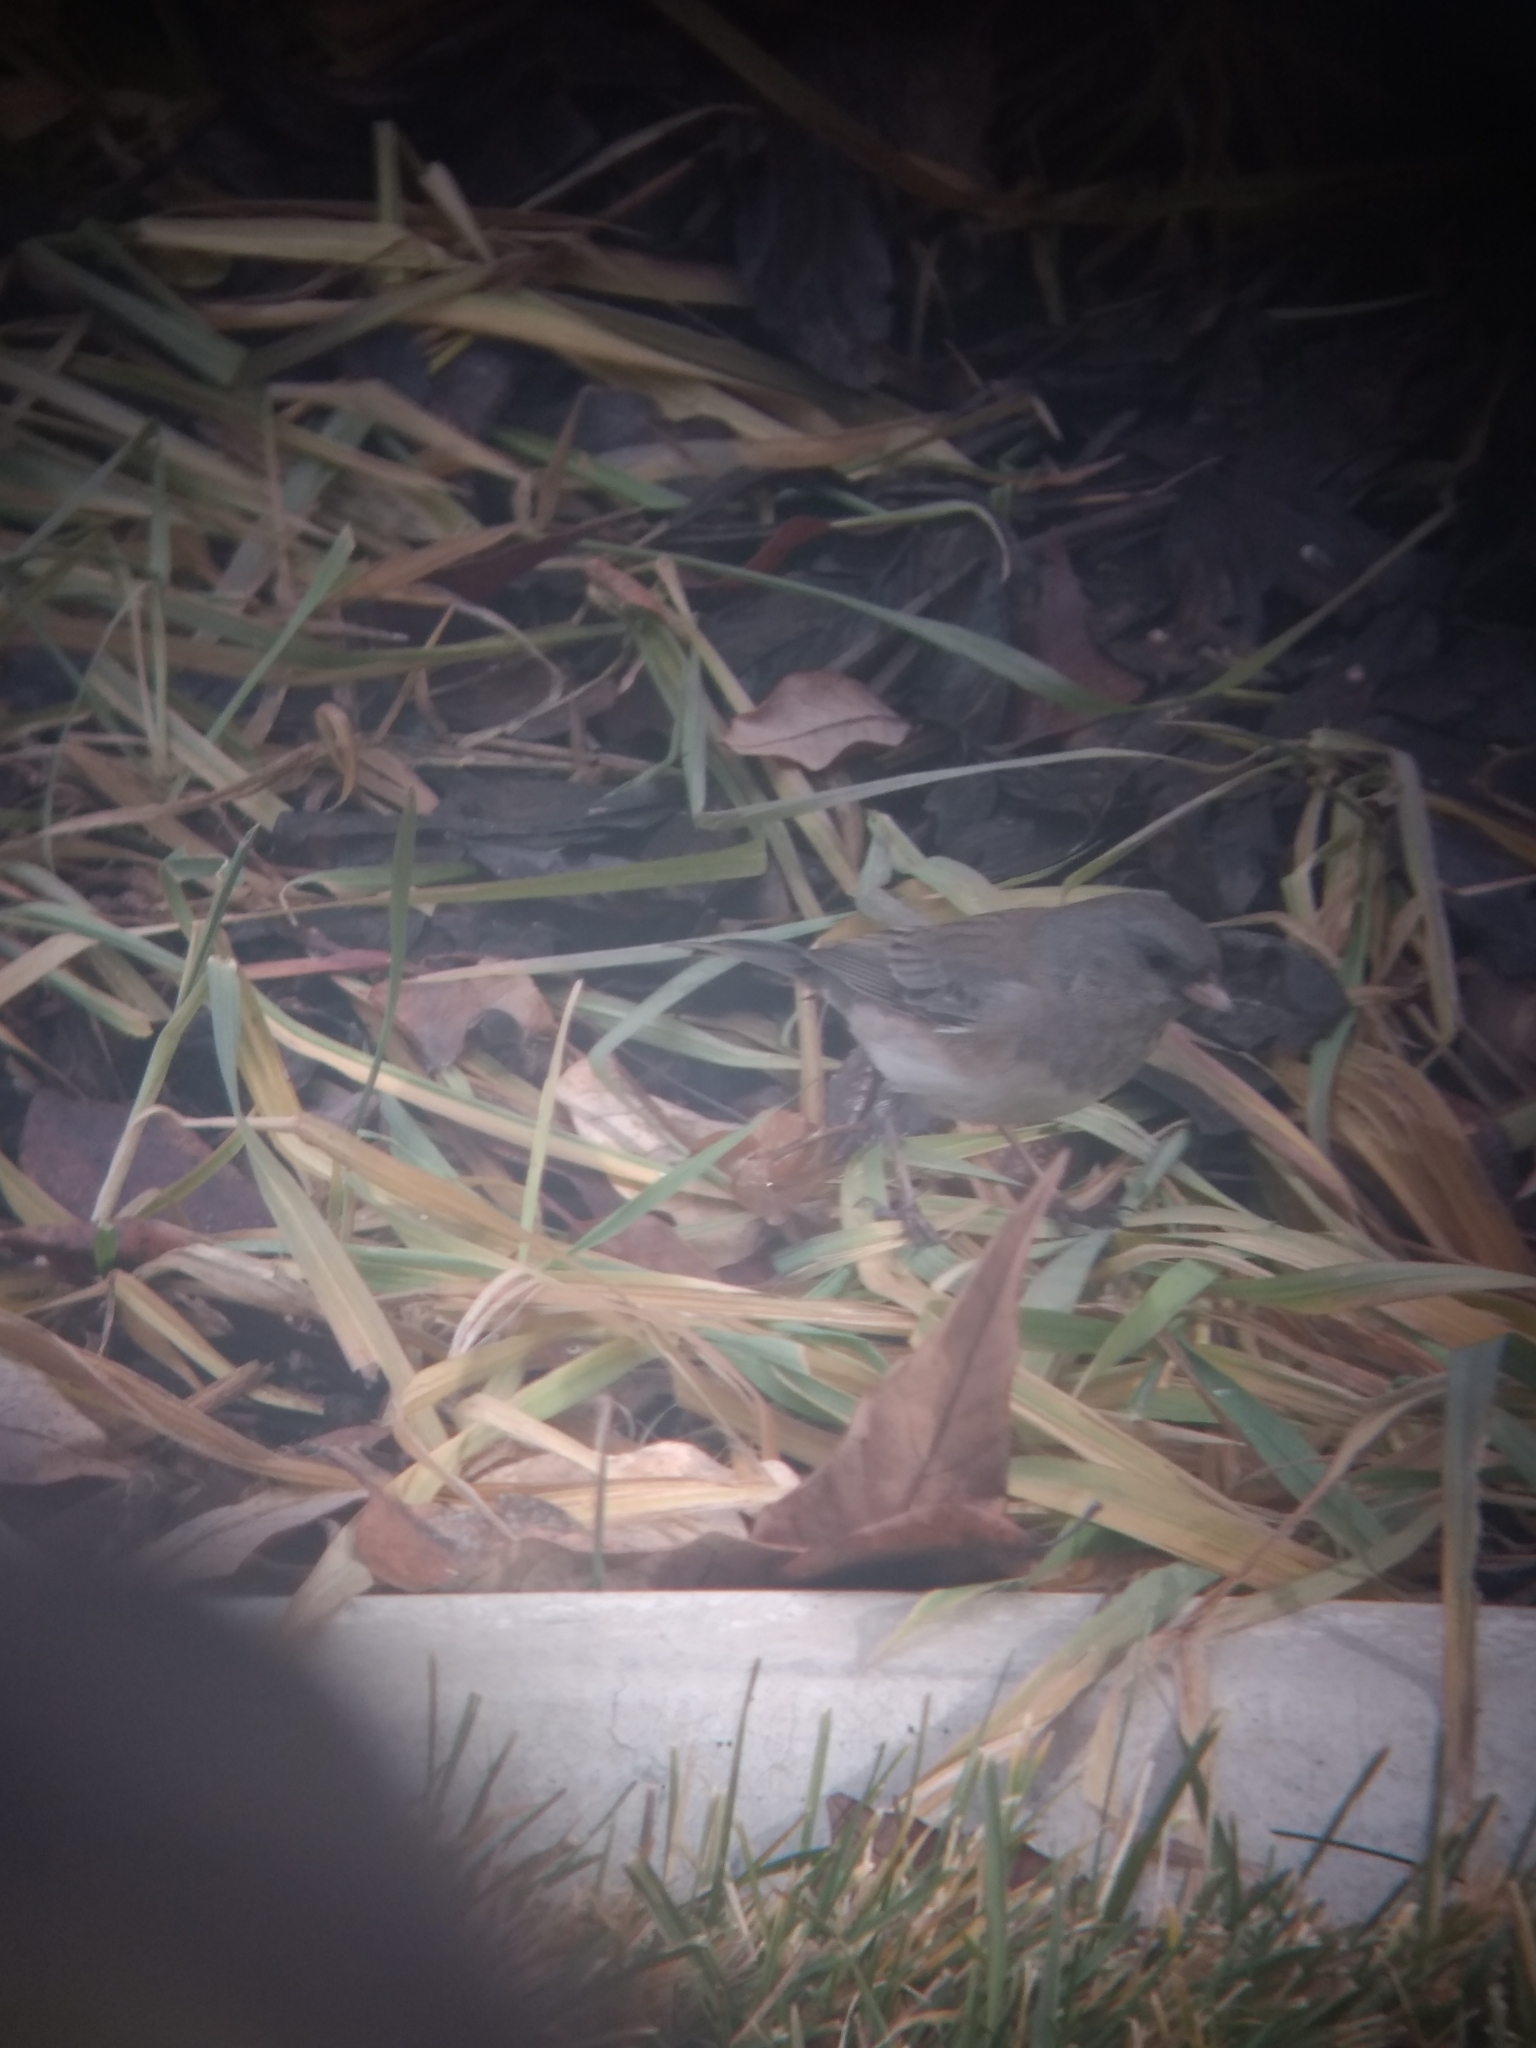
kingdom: Animalia
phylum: Chordata
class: Aves
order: Passeriformes
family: Passerellidae
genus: Junco
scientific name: Junco hyemalis
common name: Dark-eyed junco
